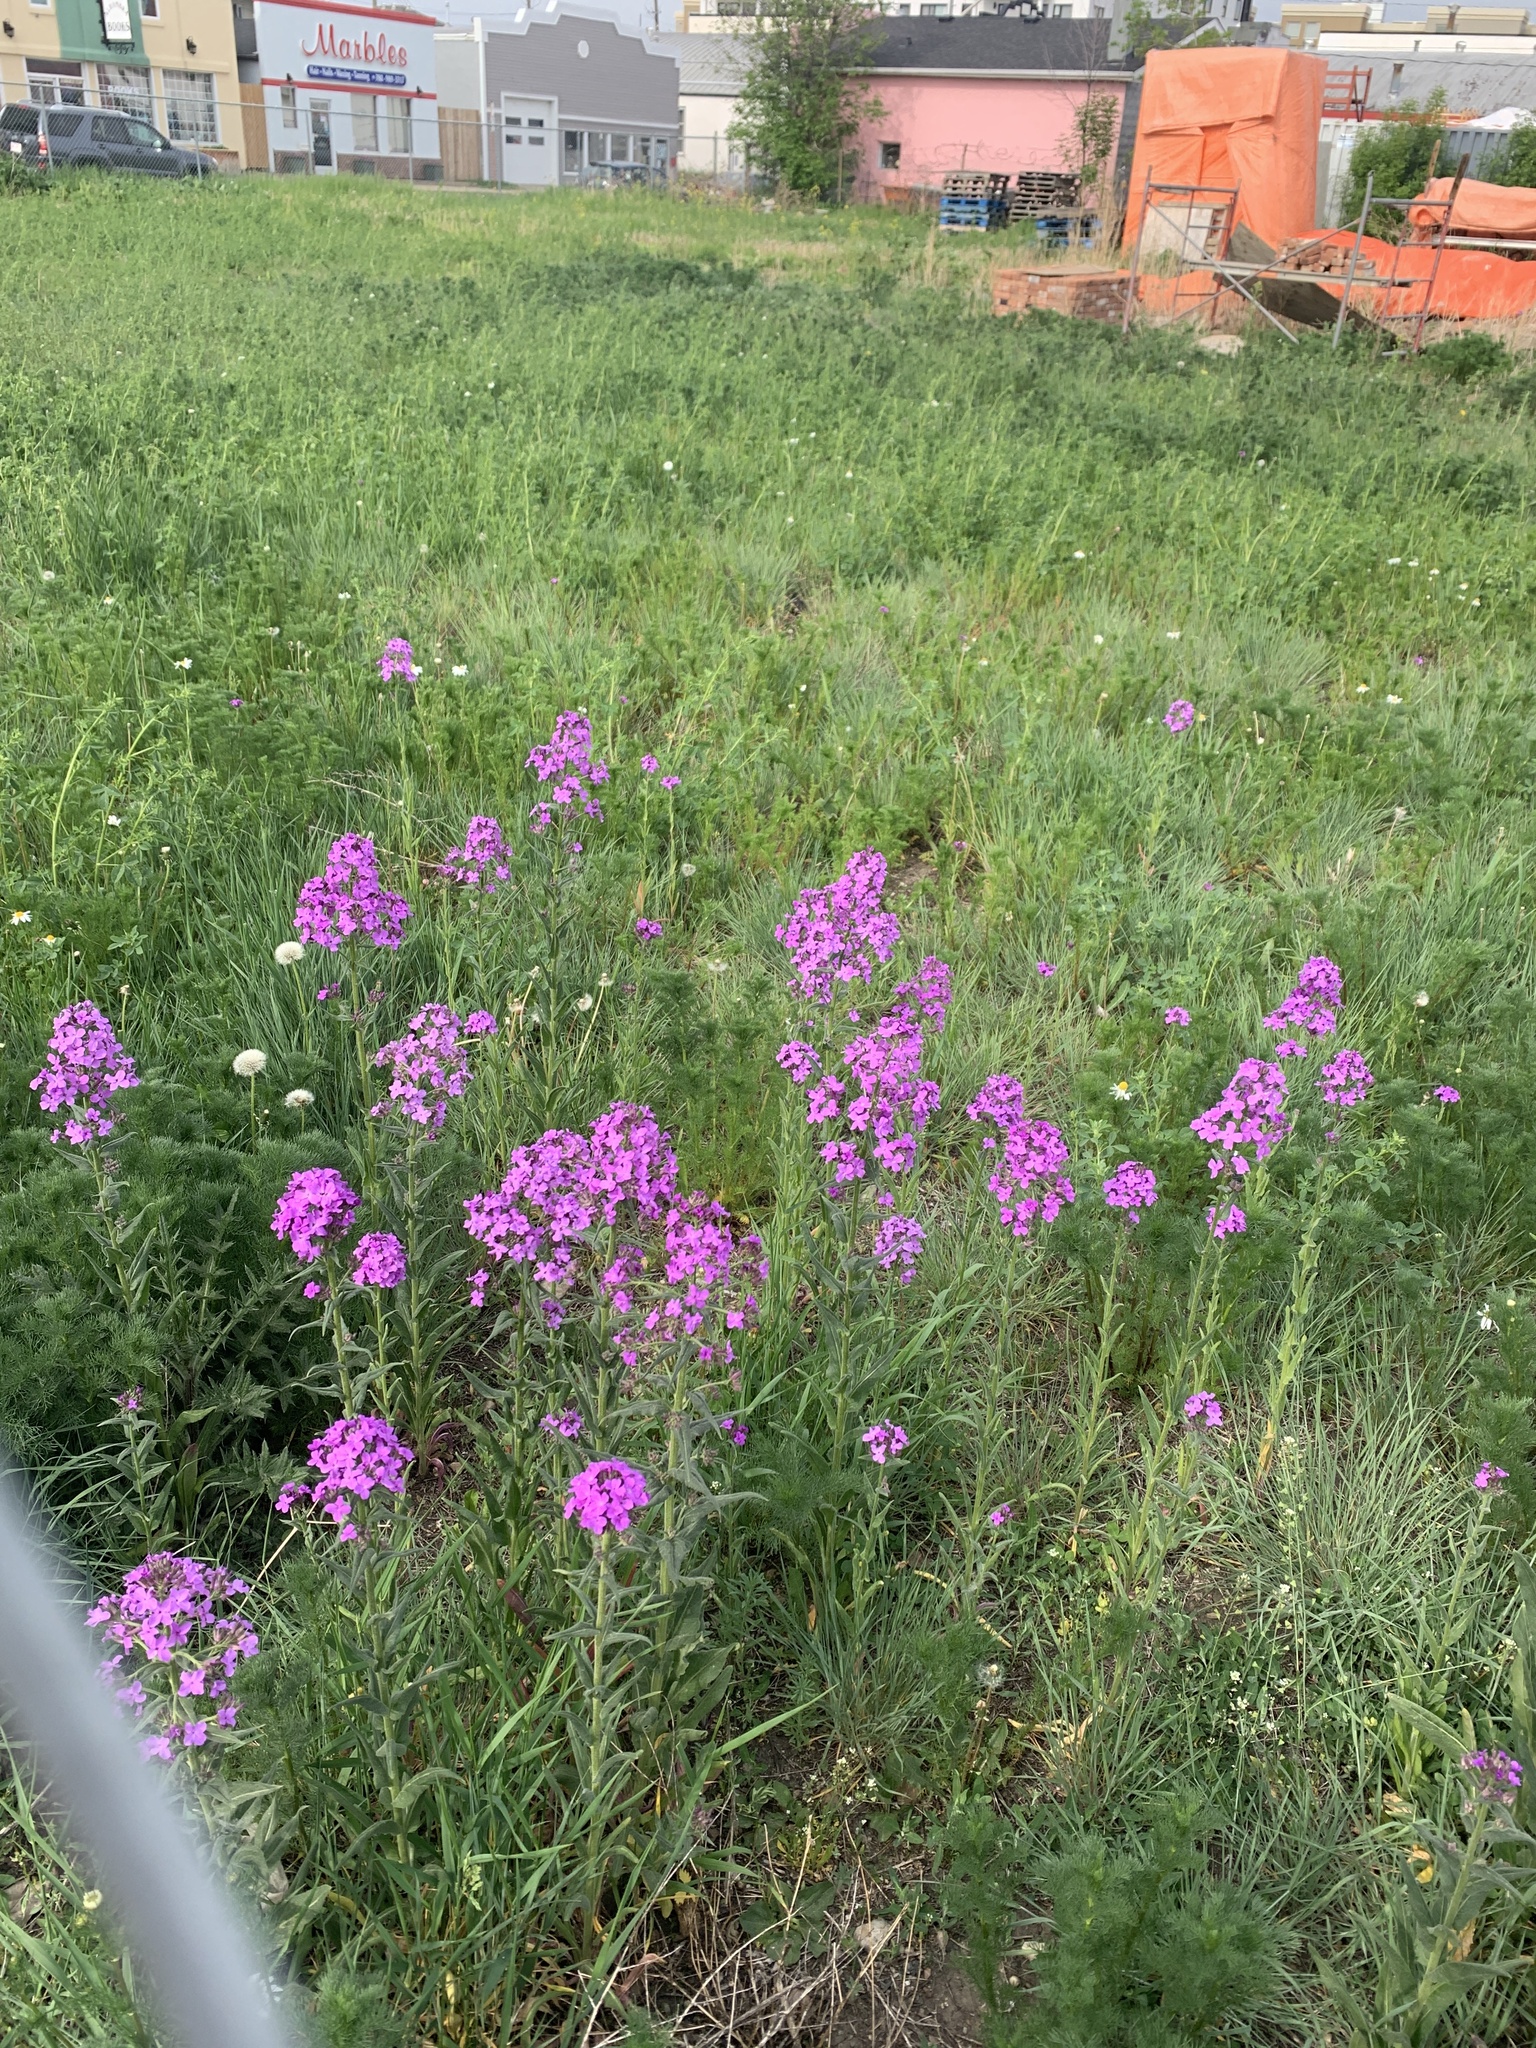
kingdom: Plantae
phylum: Tracheophyta
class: Magnoliopsida
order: Brassicales
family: Brassicaceae
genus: Hesperis
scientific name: Hesperis matronalis
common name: Dame's-violet
